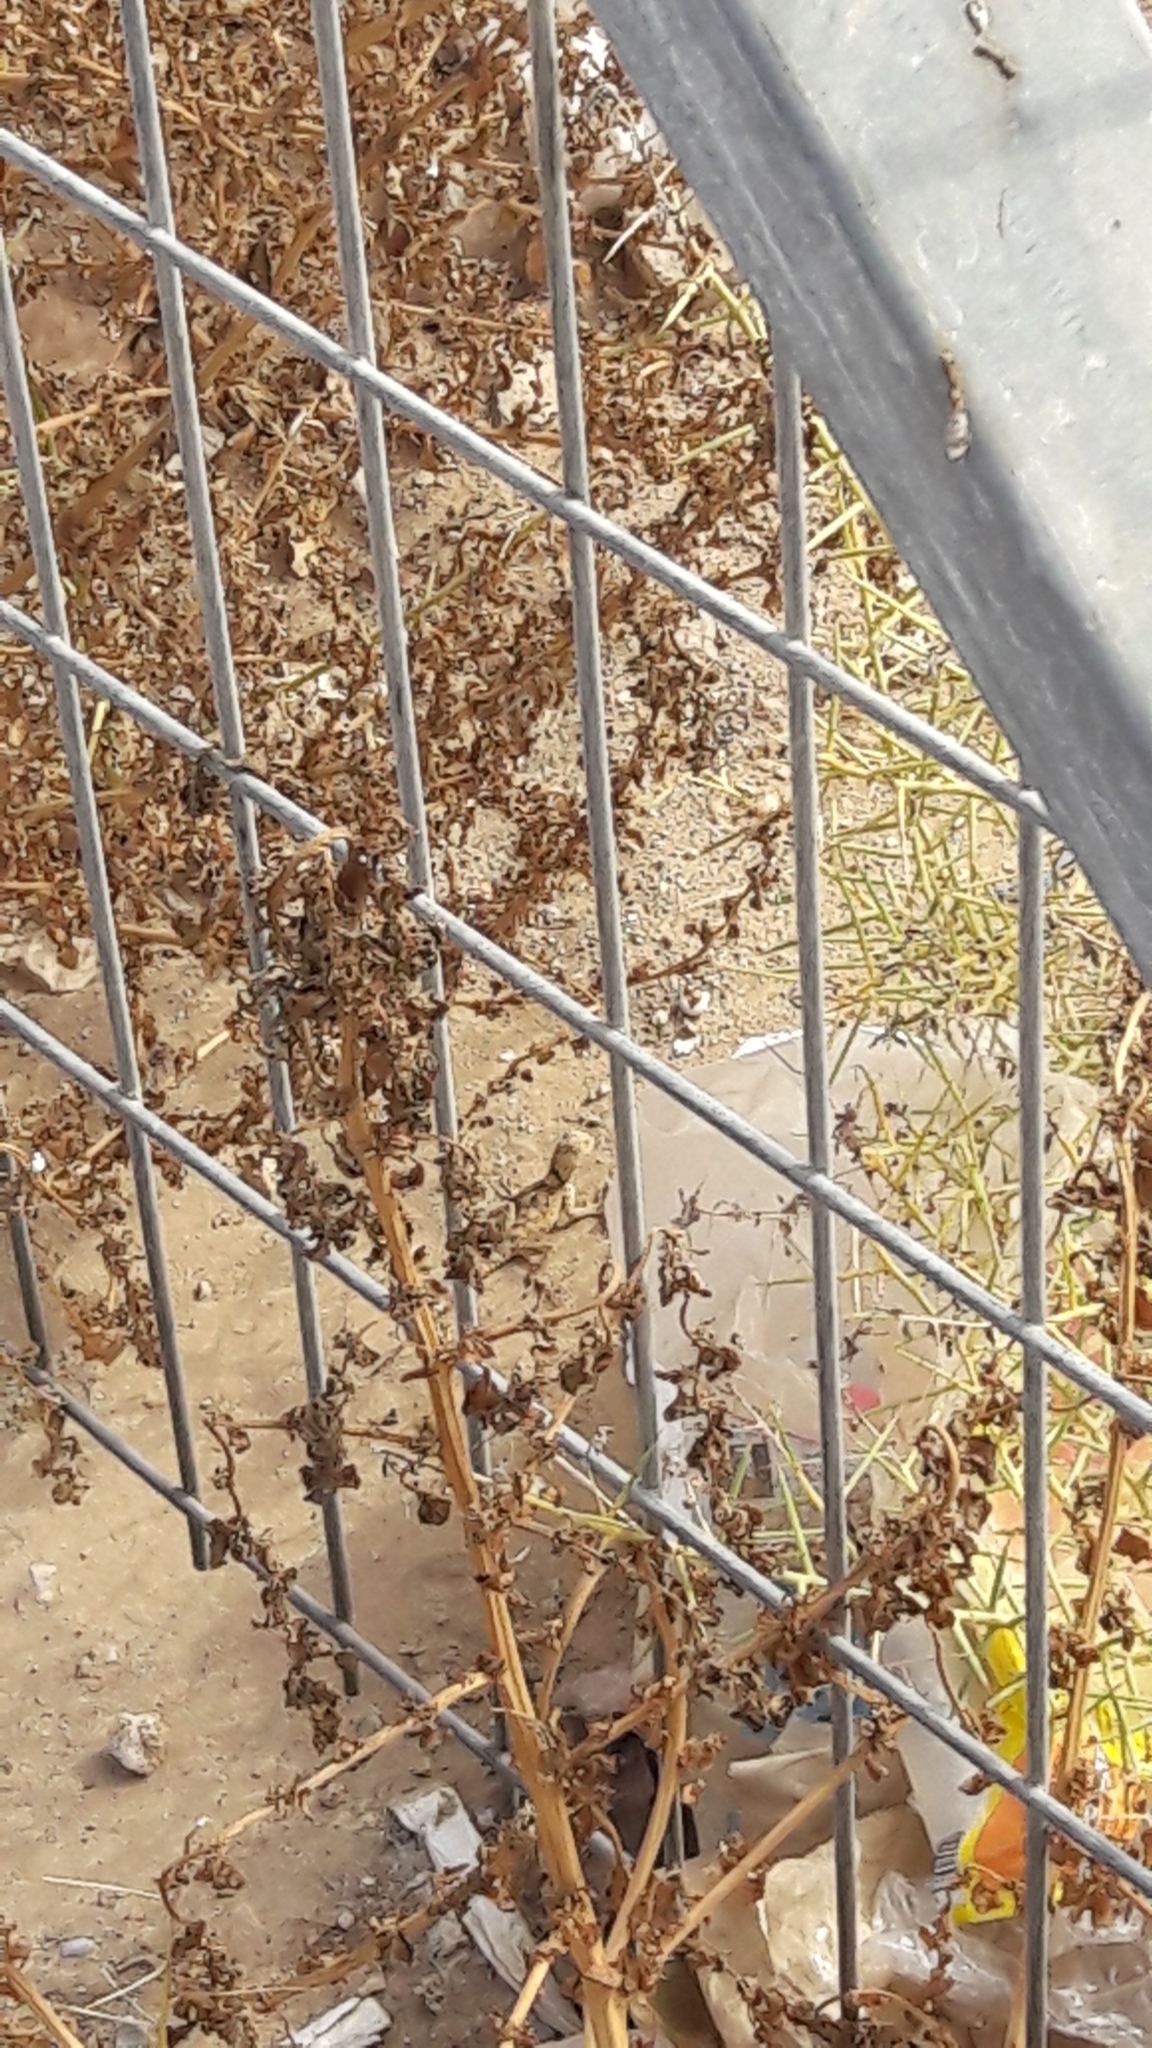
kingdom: Animalia
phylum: Chordata
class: Squamata
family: Agamidae
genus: Laudakia
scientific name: Laudakia vulgaris
